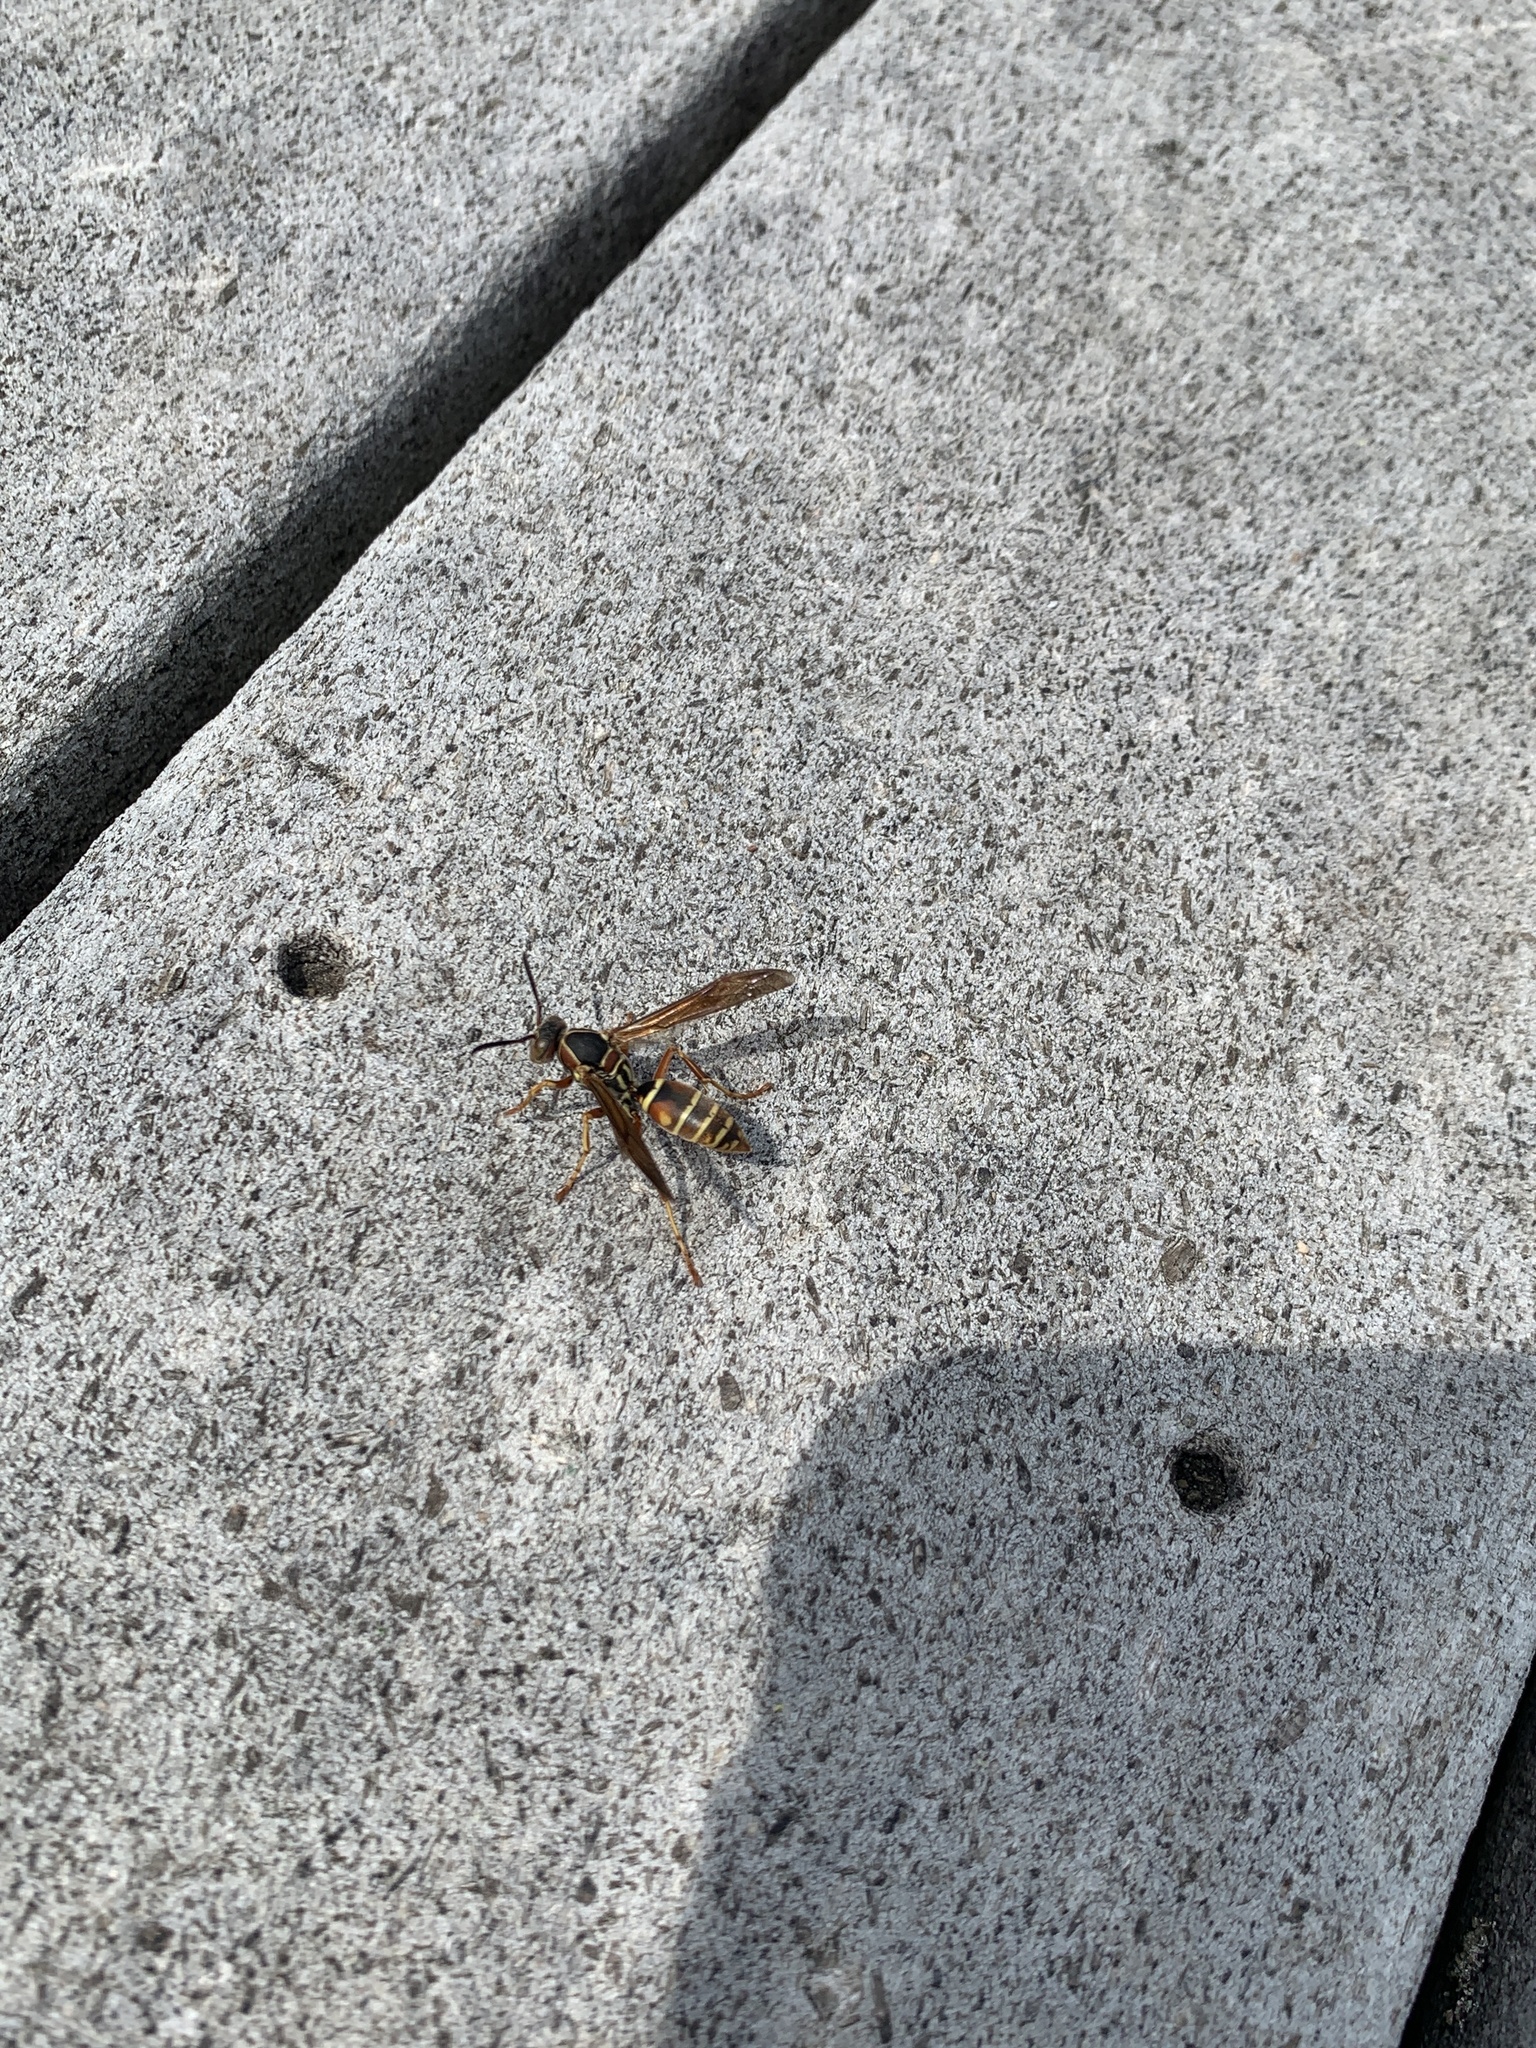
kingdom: Animalia
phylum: Arthropoda
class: Insecta
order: Hymenoptera
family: Eumenidae
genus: Polistes
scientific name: Polistes fuscatus
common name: Dark paper wasp
